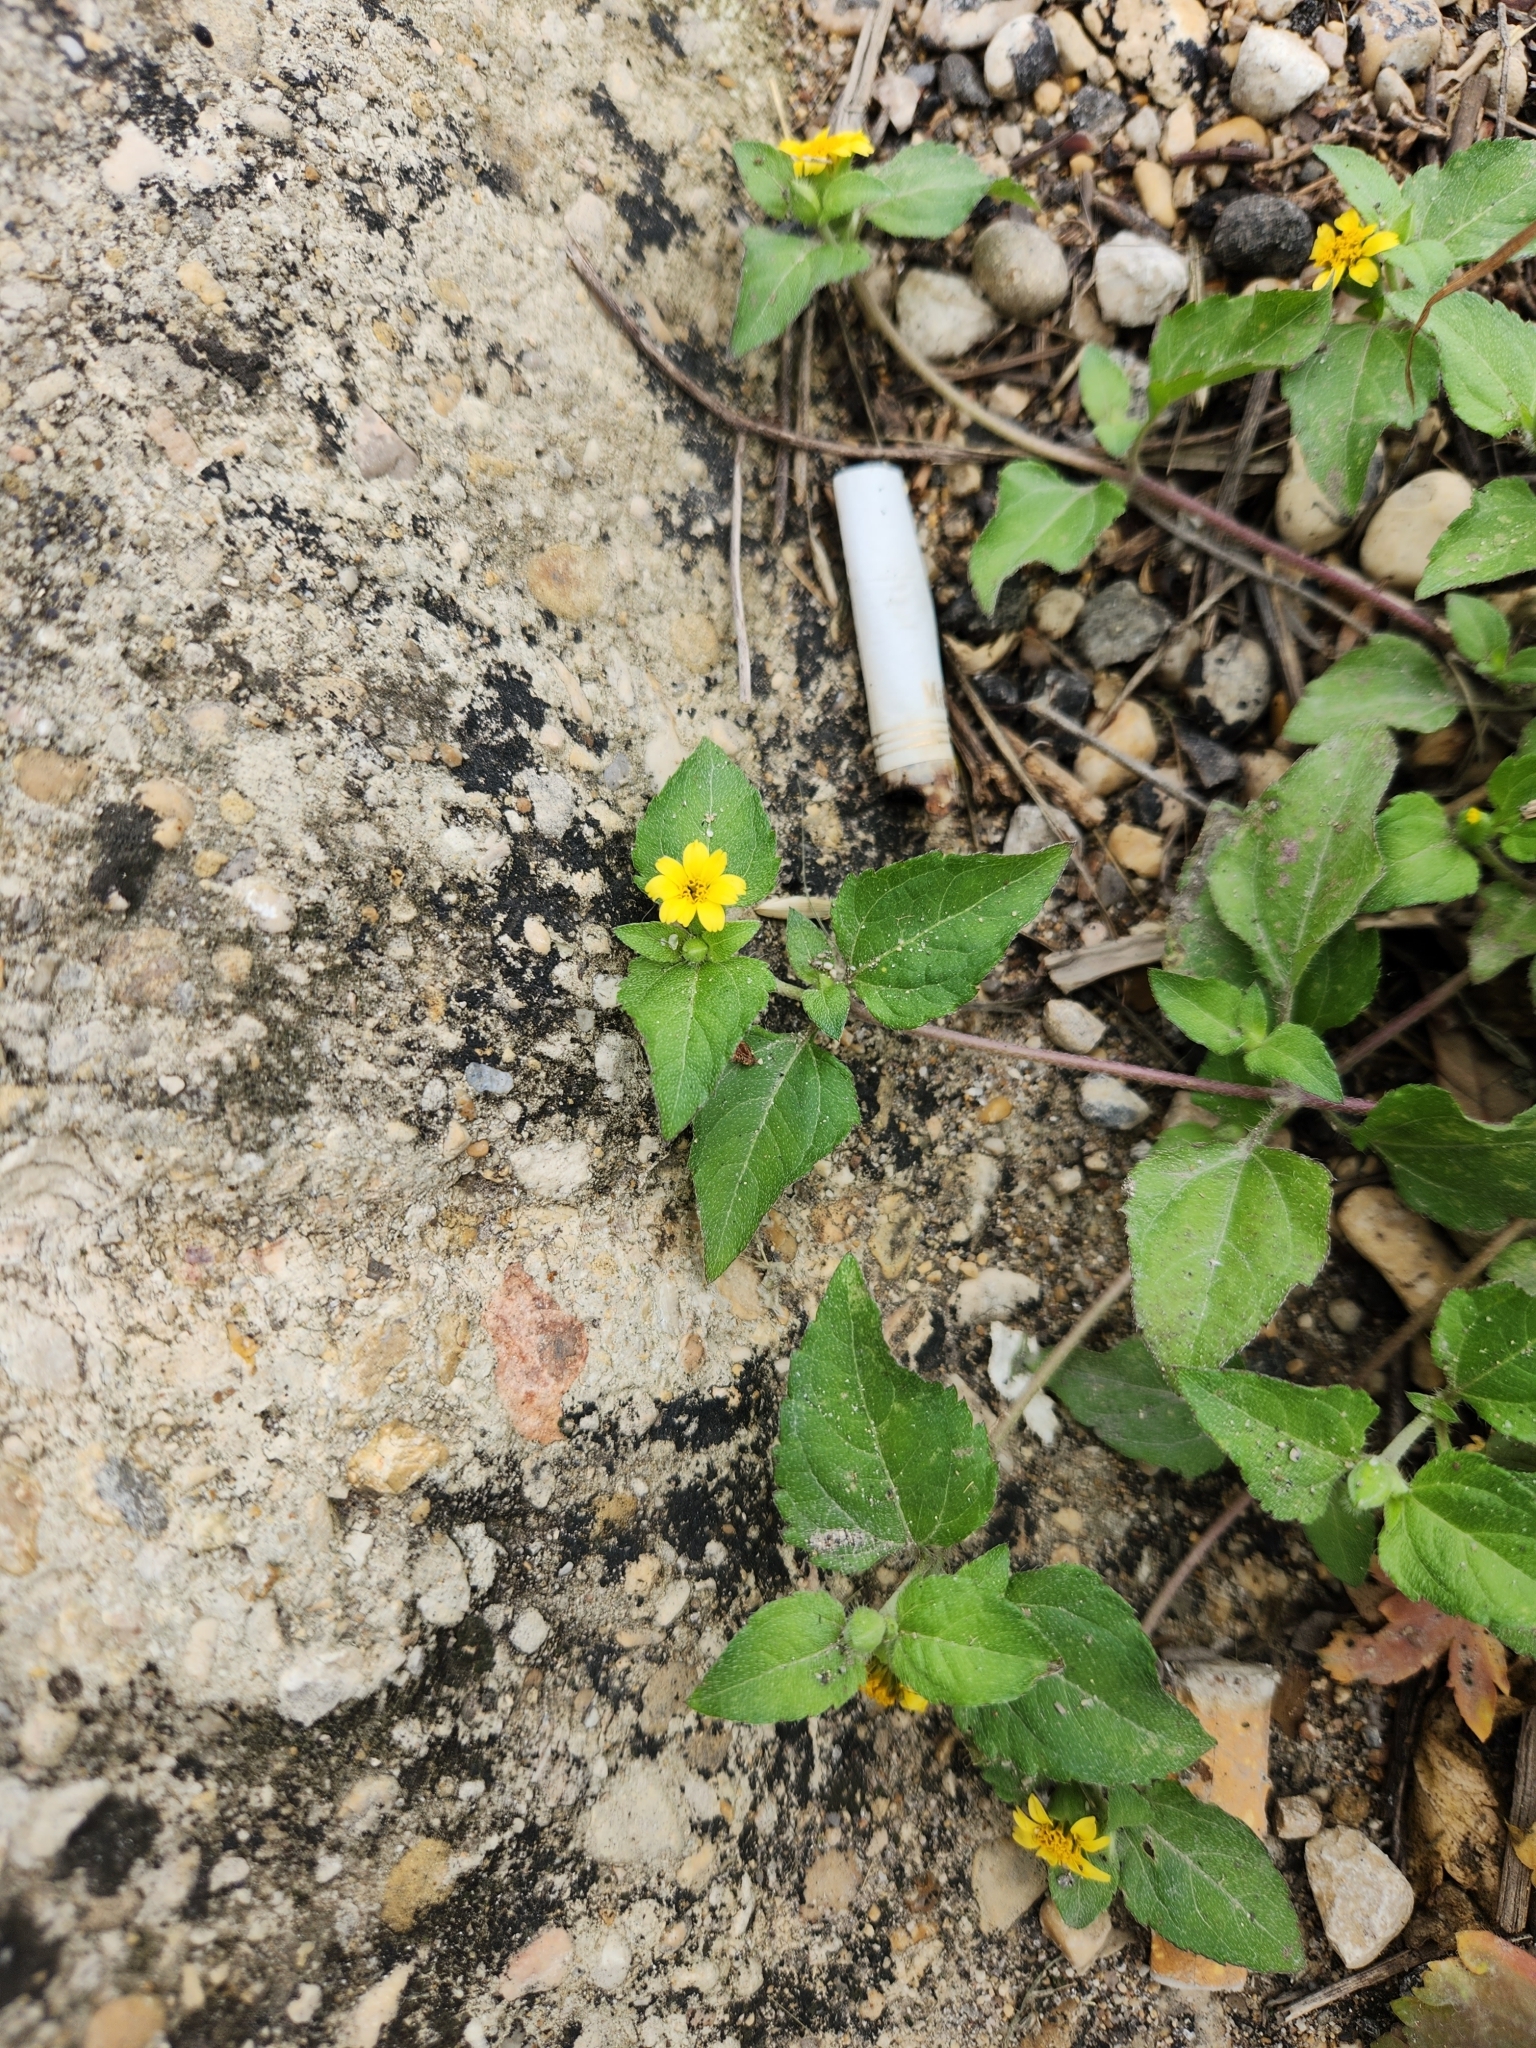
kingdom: Plantae
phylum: Tracheophyta
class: Magnoliopsida
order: Asterales
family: Asteraceae
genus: Calyptocarpus
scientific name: Calyptocarpus vialis
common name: Straggler daisy
